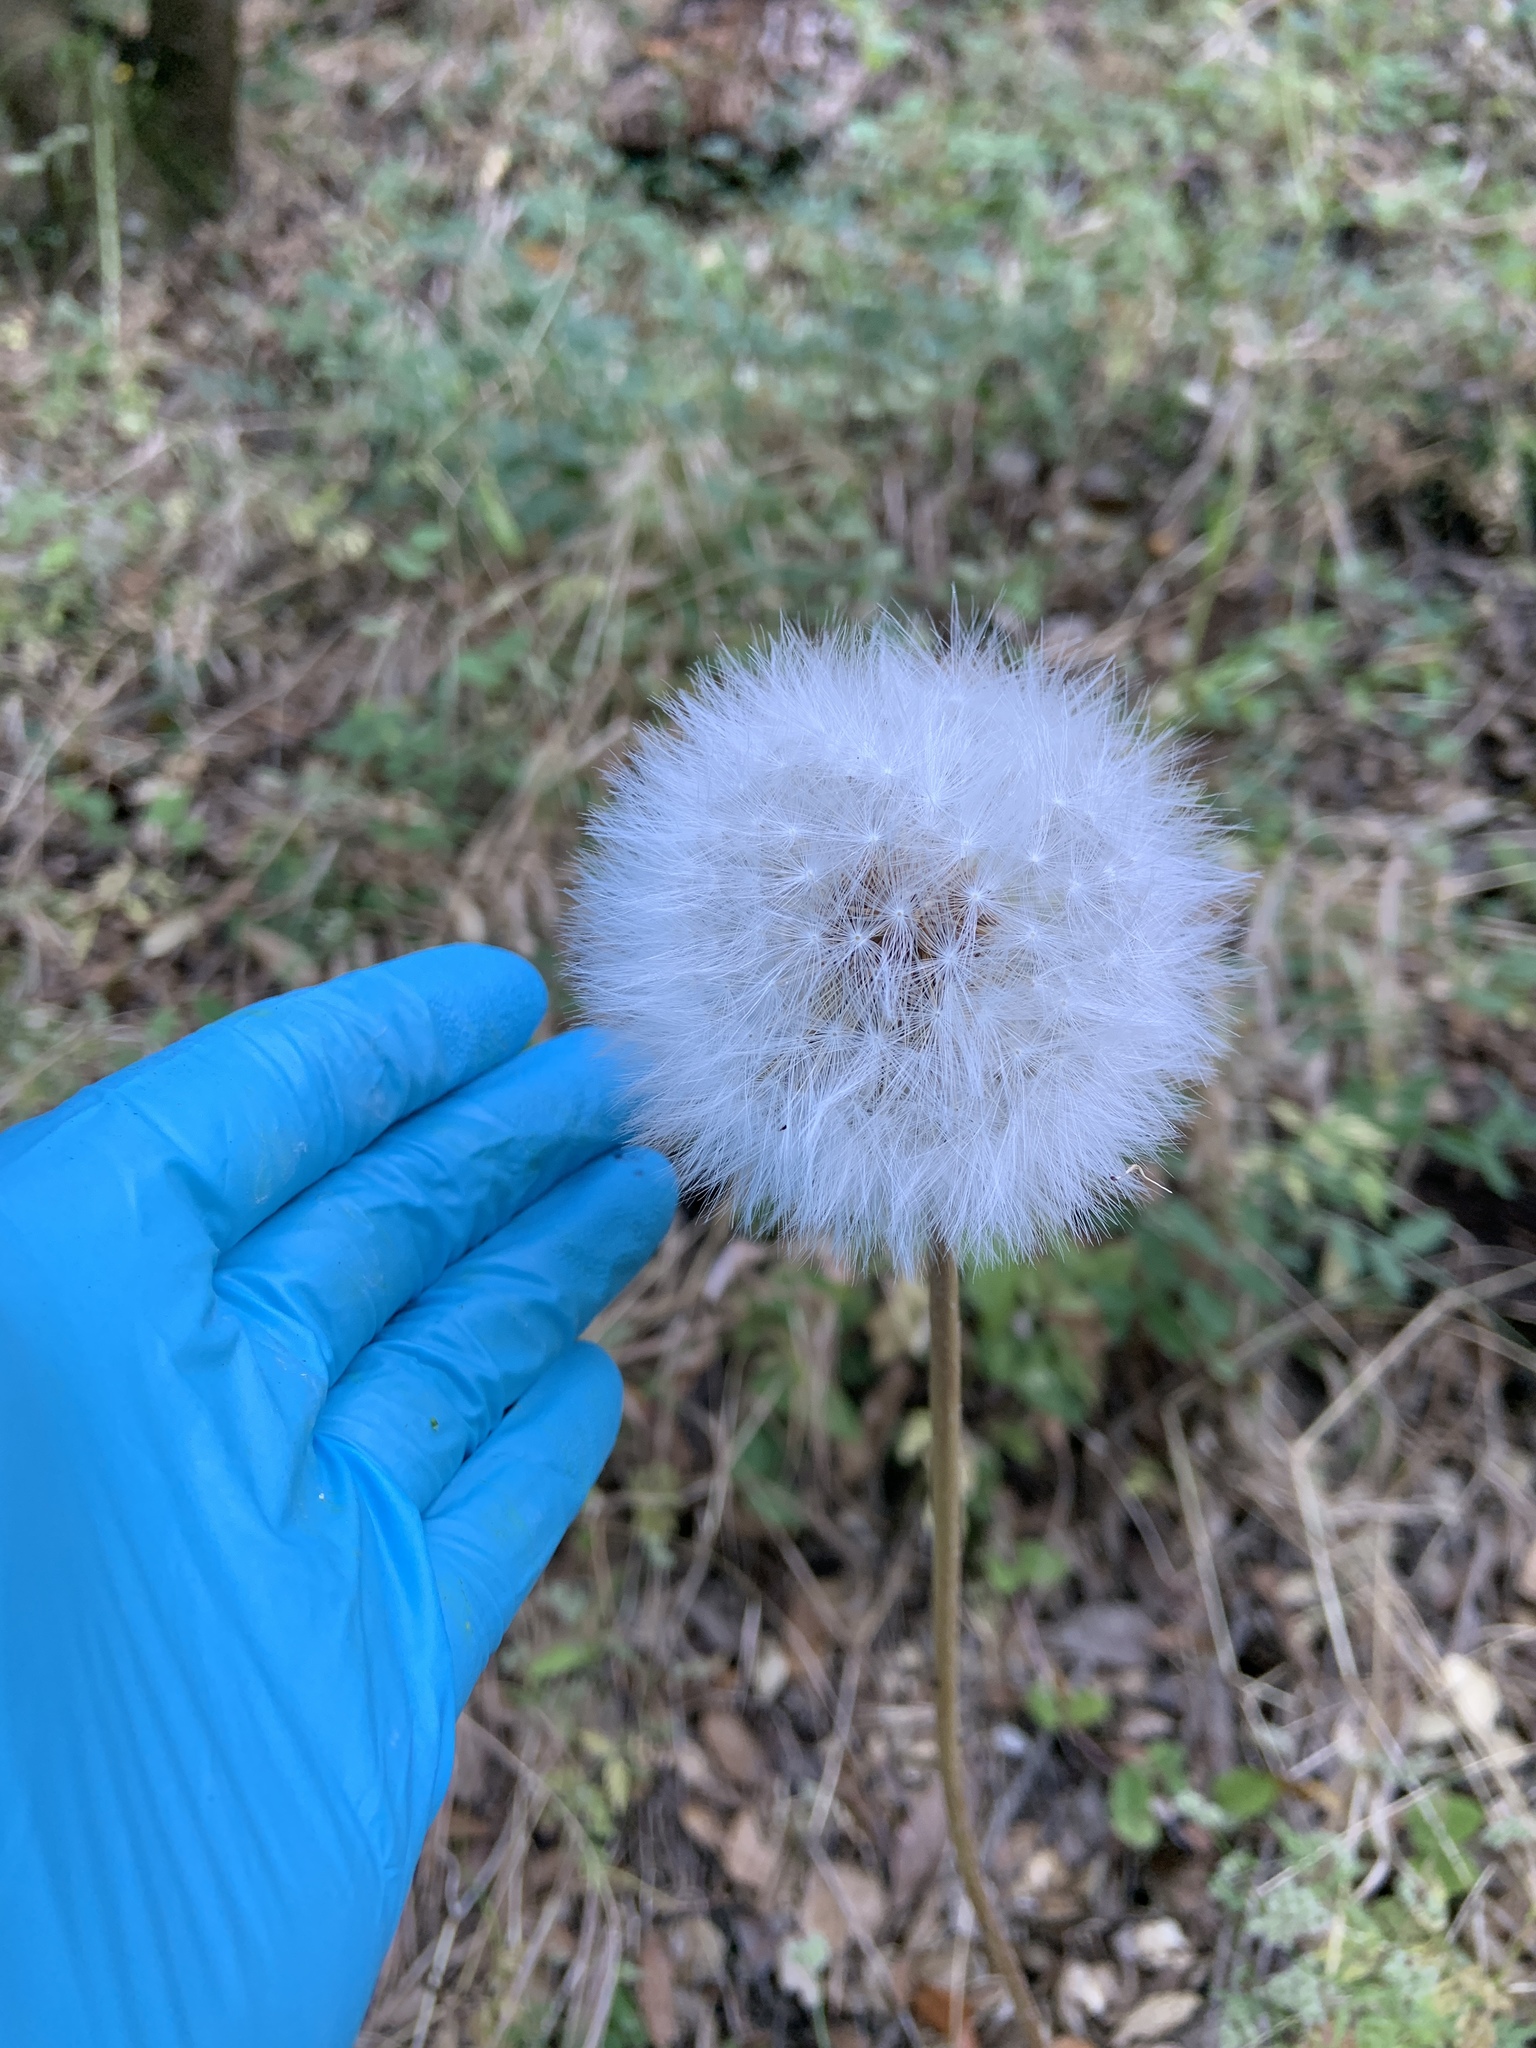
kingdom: Plantae
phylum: Tracheophyta
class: Magnoliopsida
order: Asterales
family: Asteraceae
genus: Agoseris
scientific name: Agoseris grandiflora
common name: Grassland agoseris
